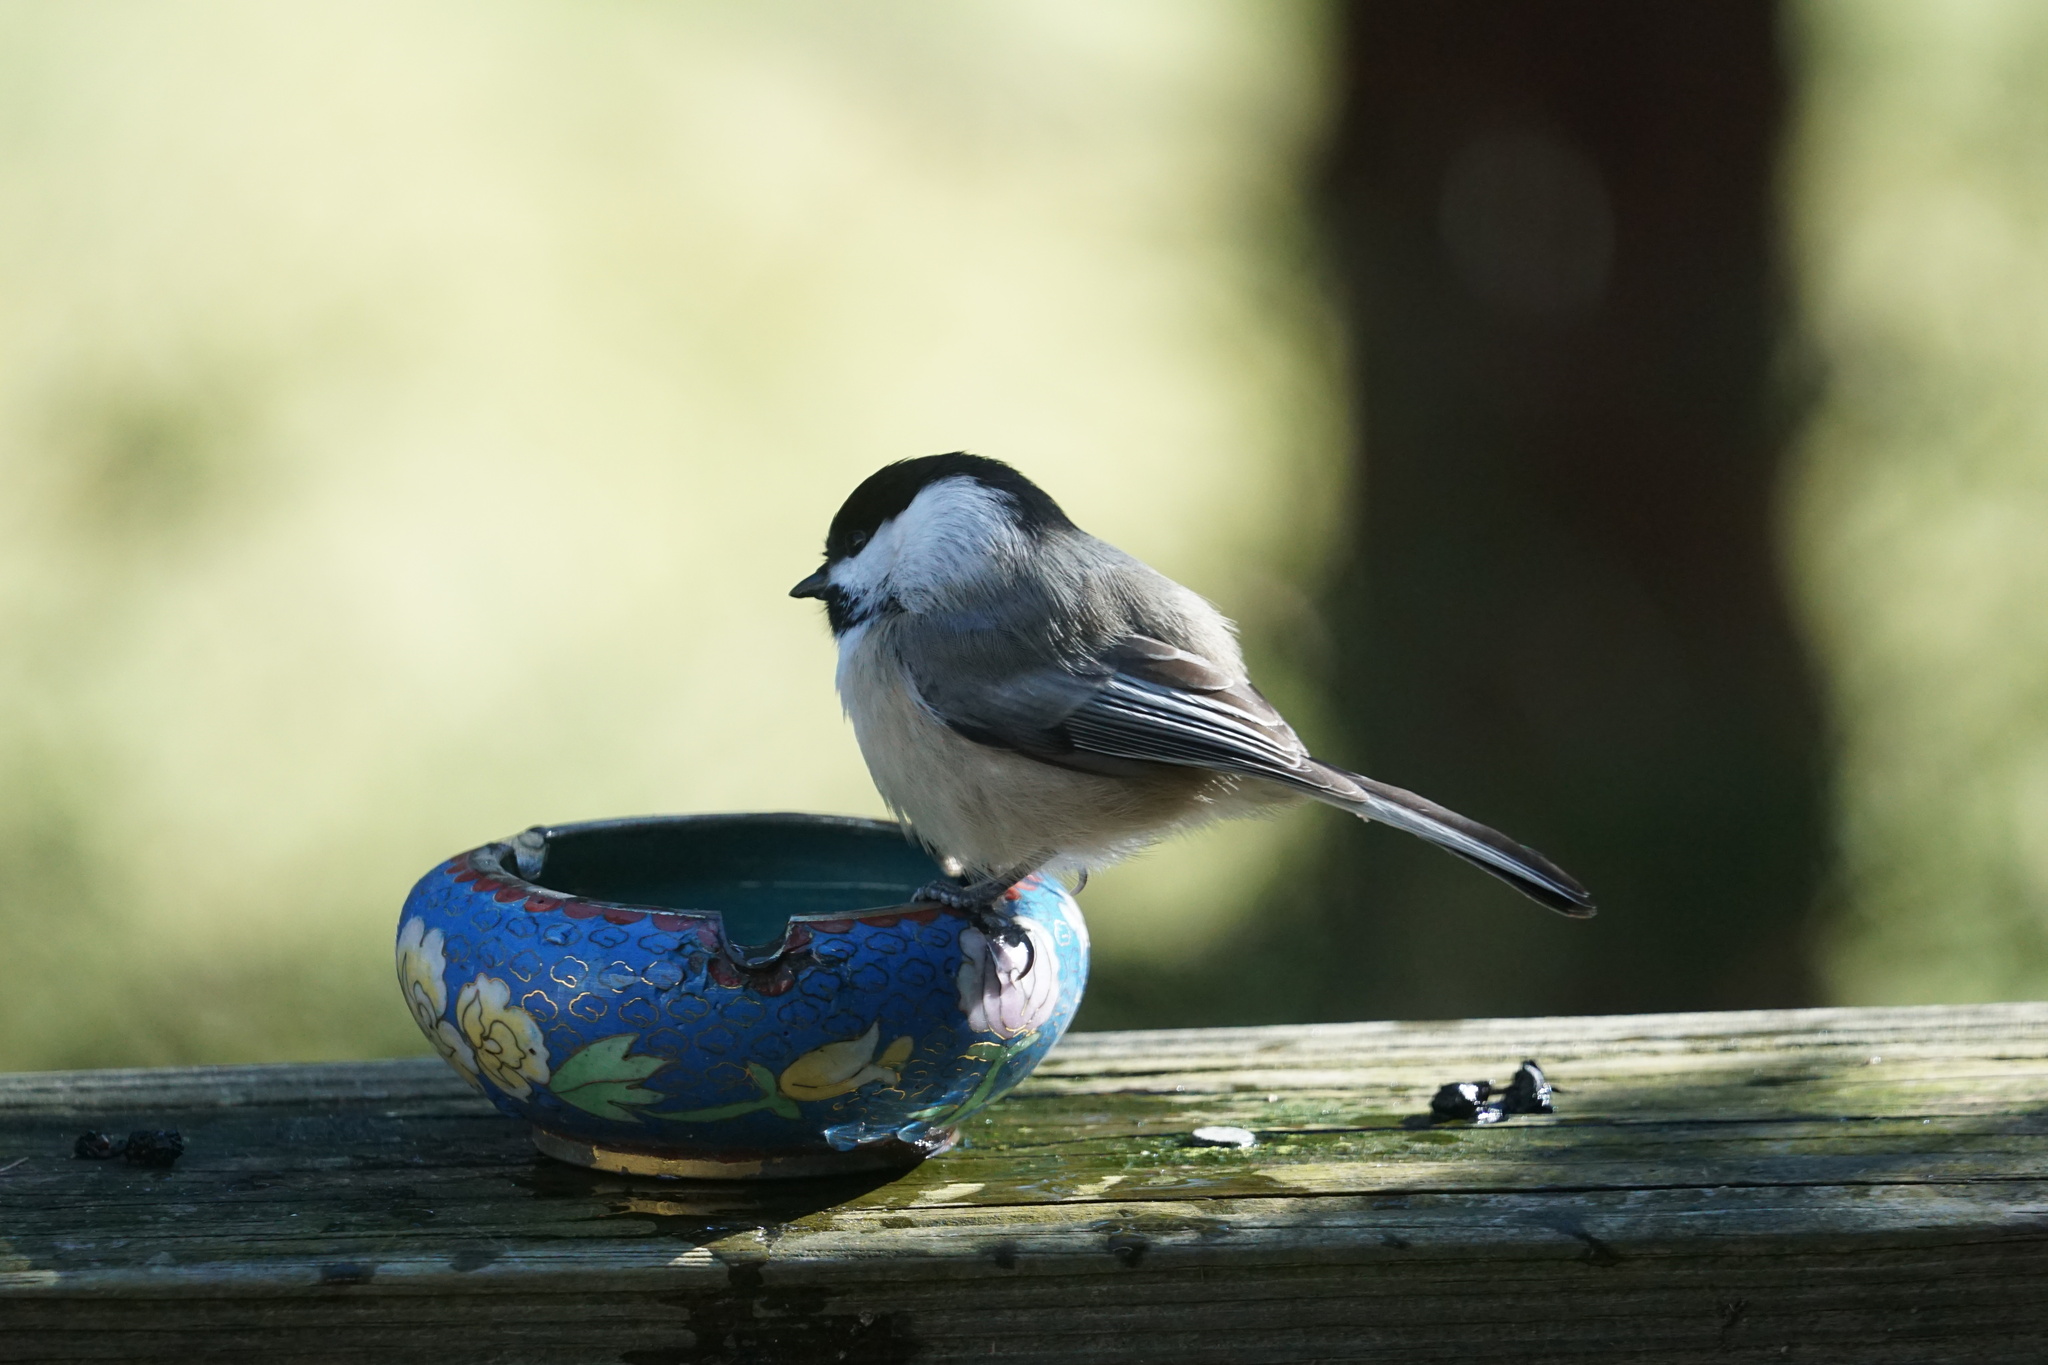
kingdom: Animalia
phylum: Chordata
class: Aves
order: Passeriformes
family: Paridae
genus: Poecile
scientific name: Poecile atricapillus
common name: Black-capped chickadee
